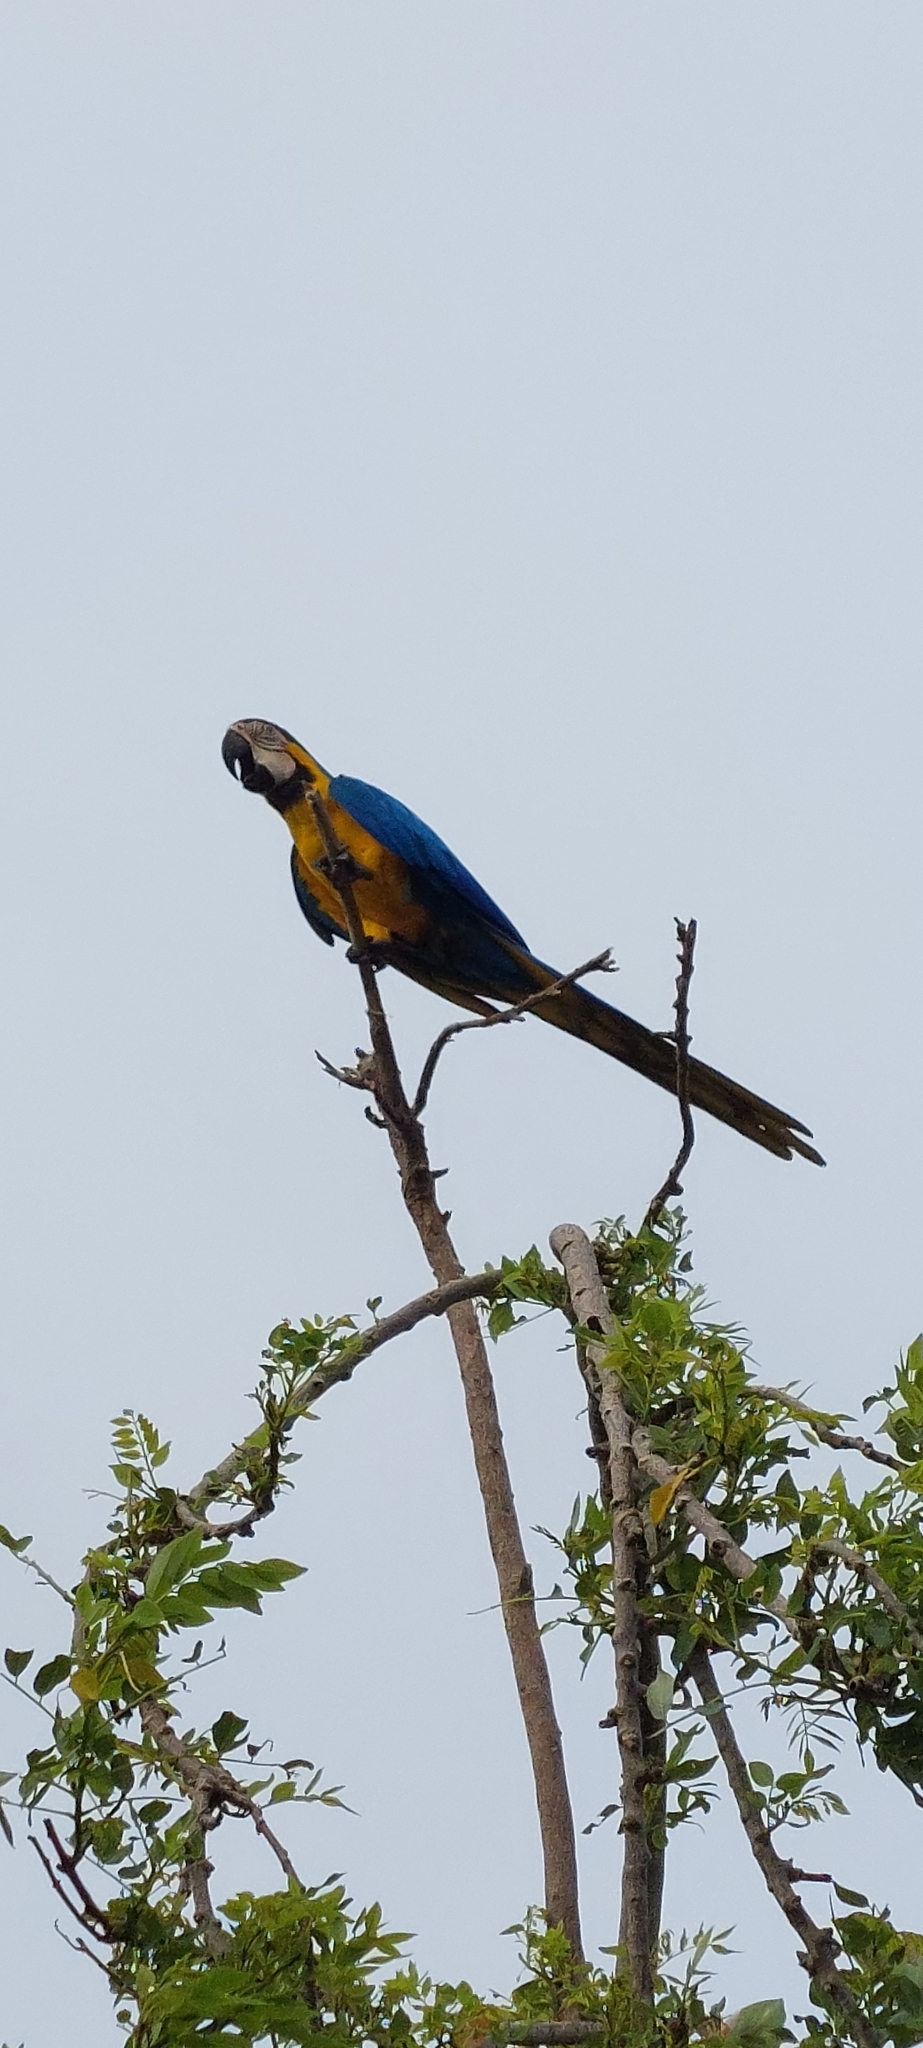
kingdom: Animalia
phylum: Chordata
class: Aves
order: Psittaciformes
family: Psittacidae
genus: Ara
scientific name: Ara ararauna
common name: Blue-and-yellow macaw
